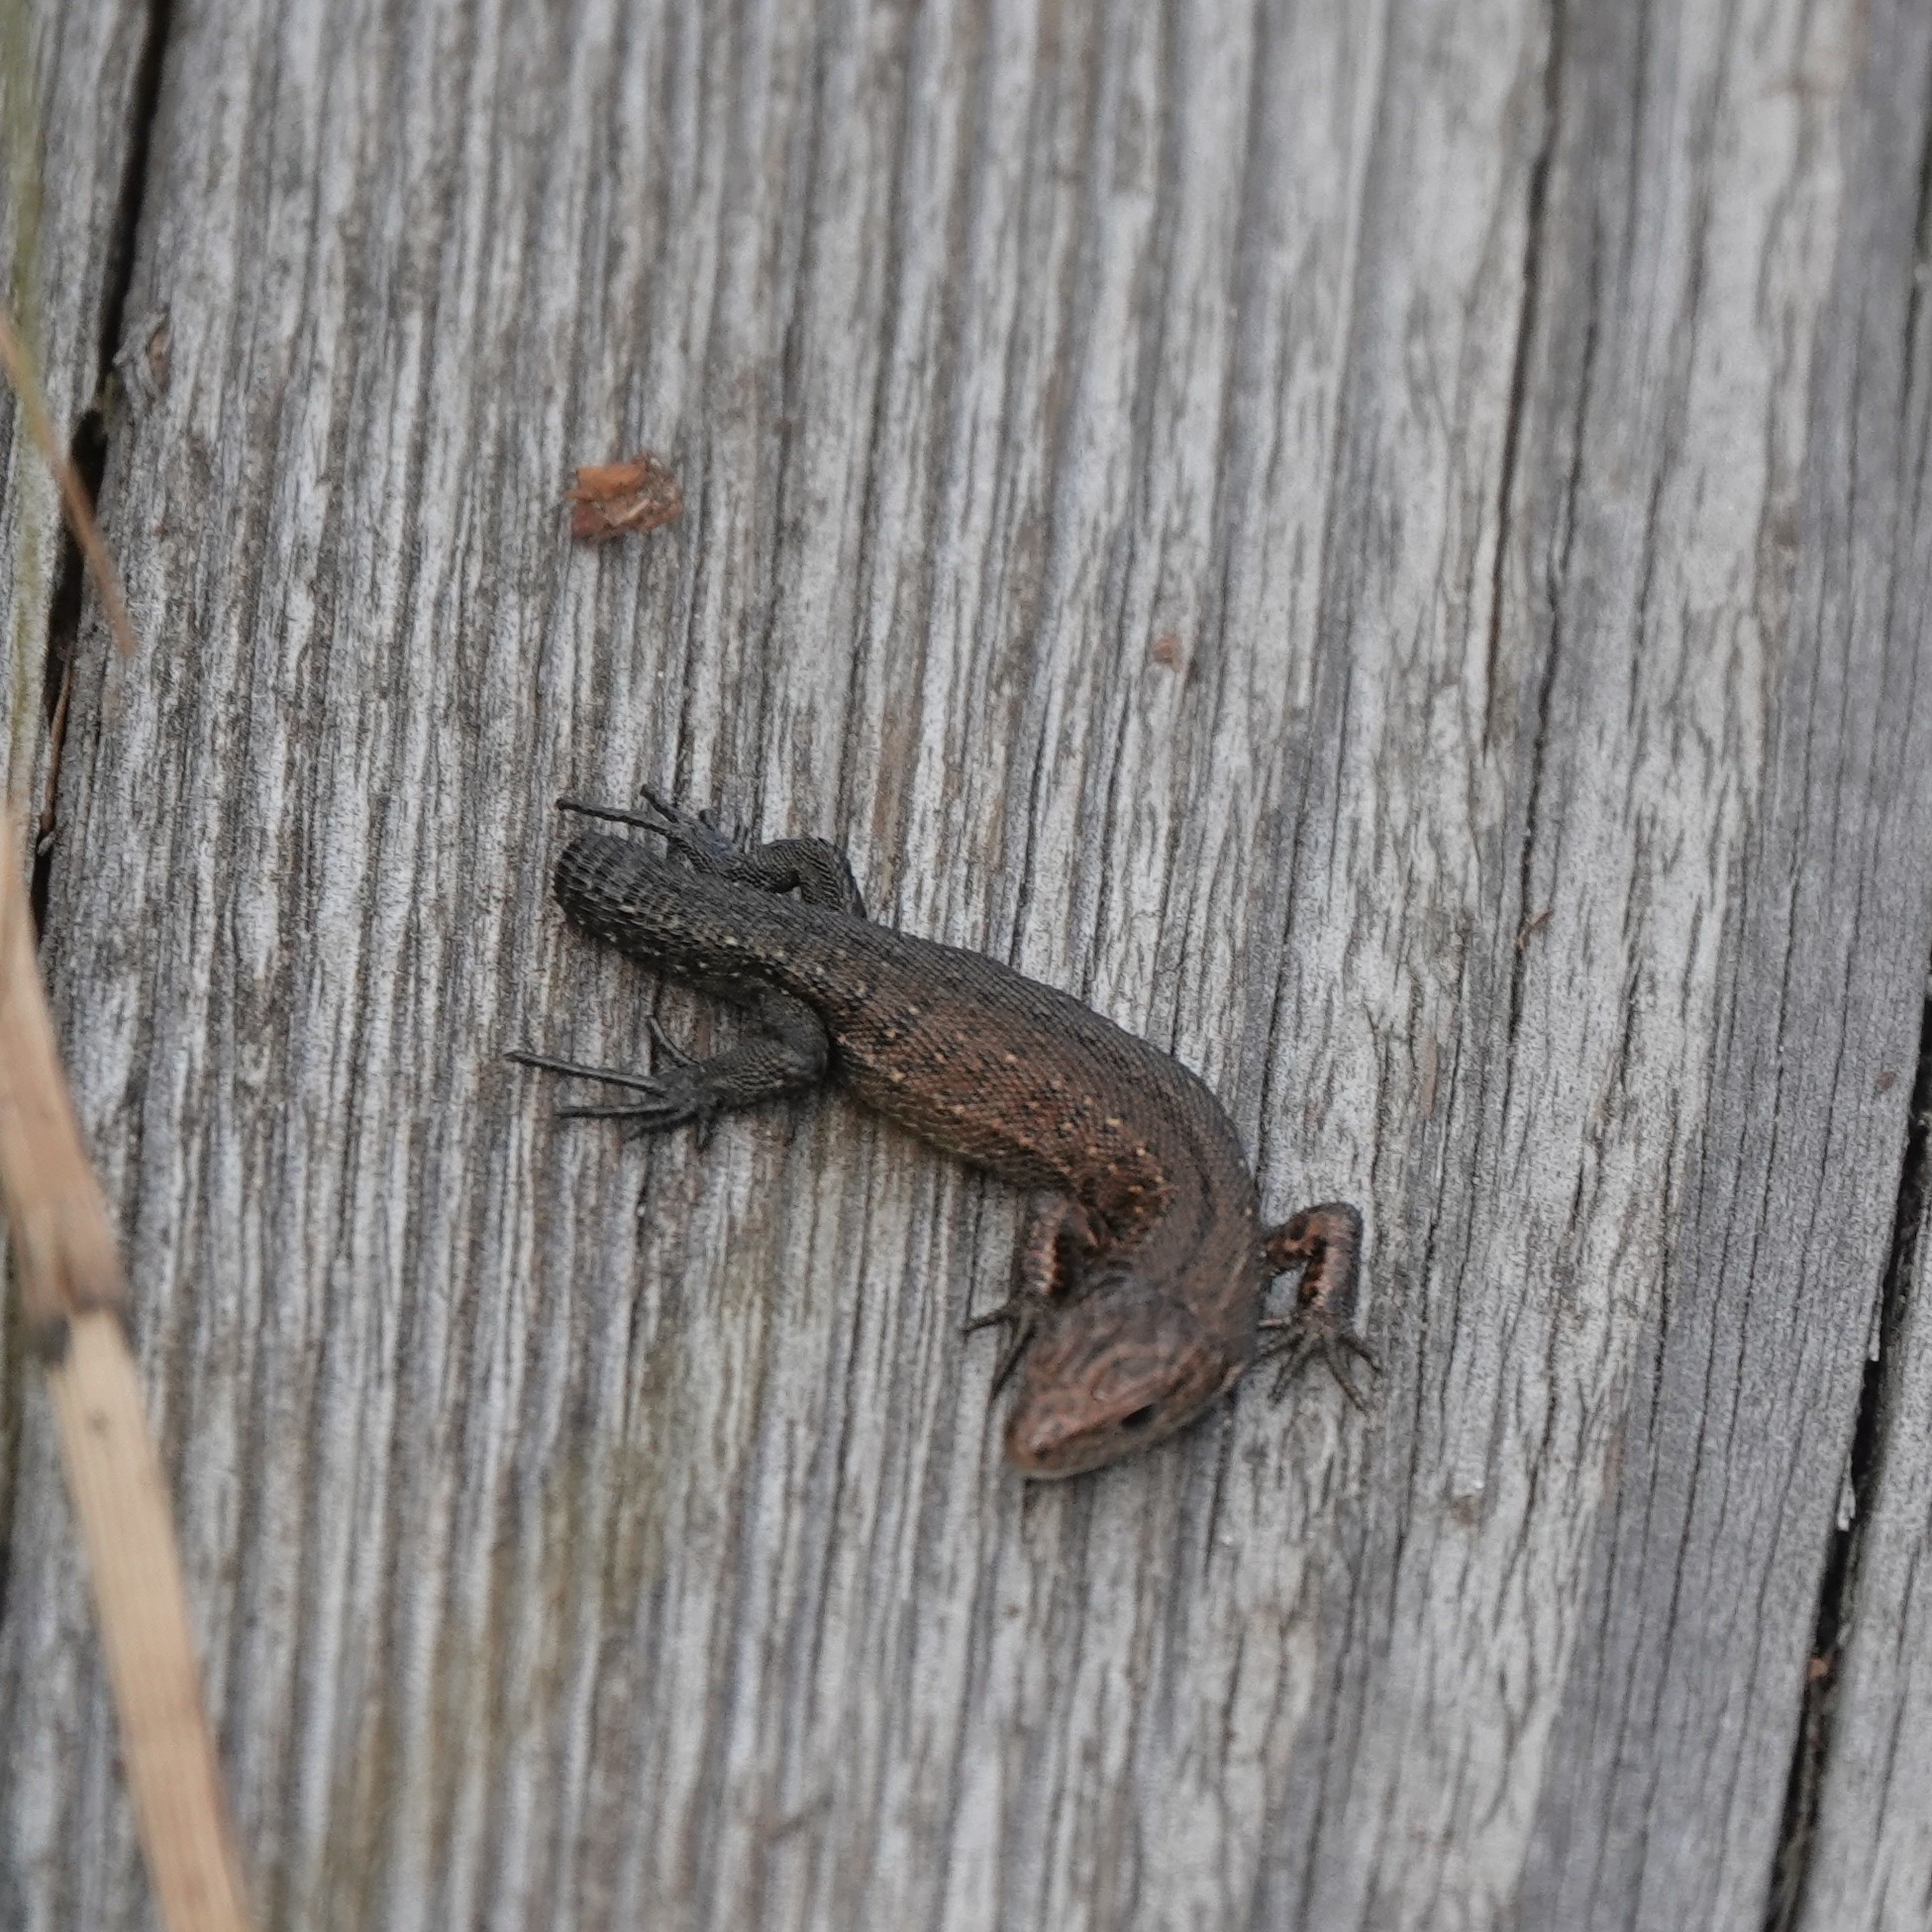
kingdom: Animalia
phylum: Chordata
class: Squamata
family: Lacertidae
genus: Zootoca
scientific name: Zootoca vivipara
